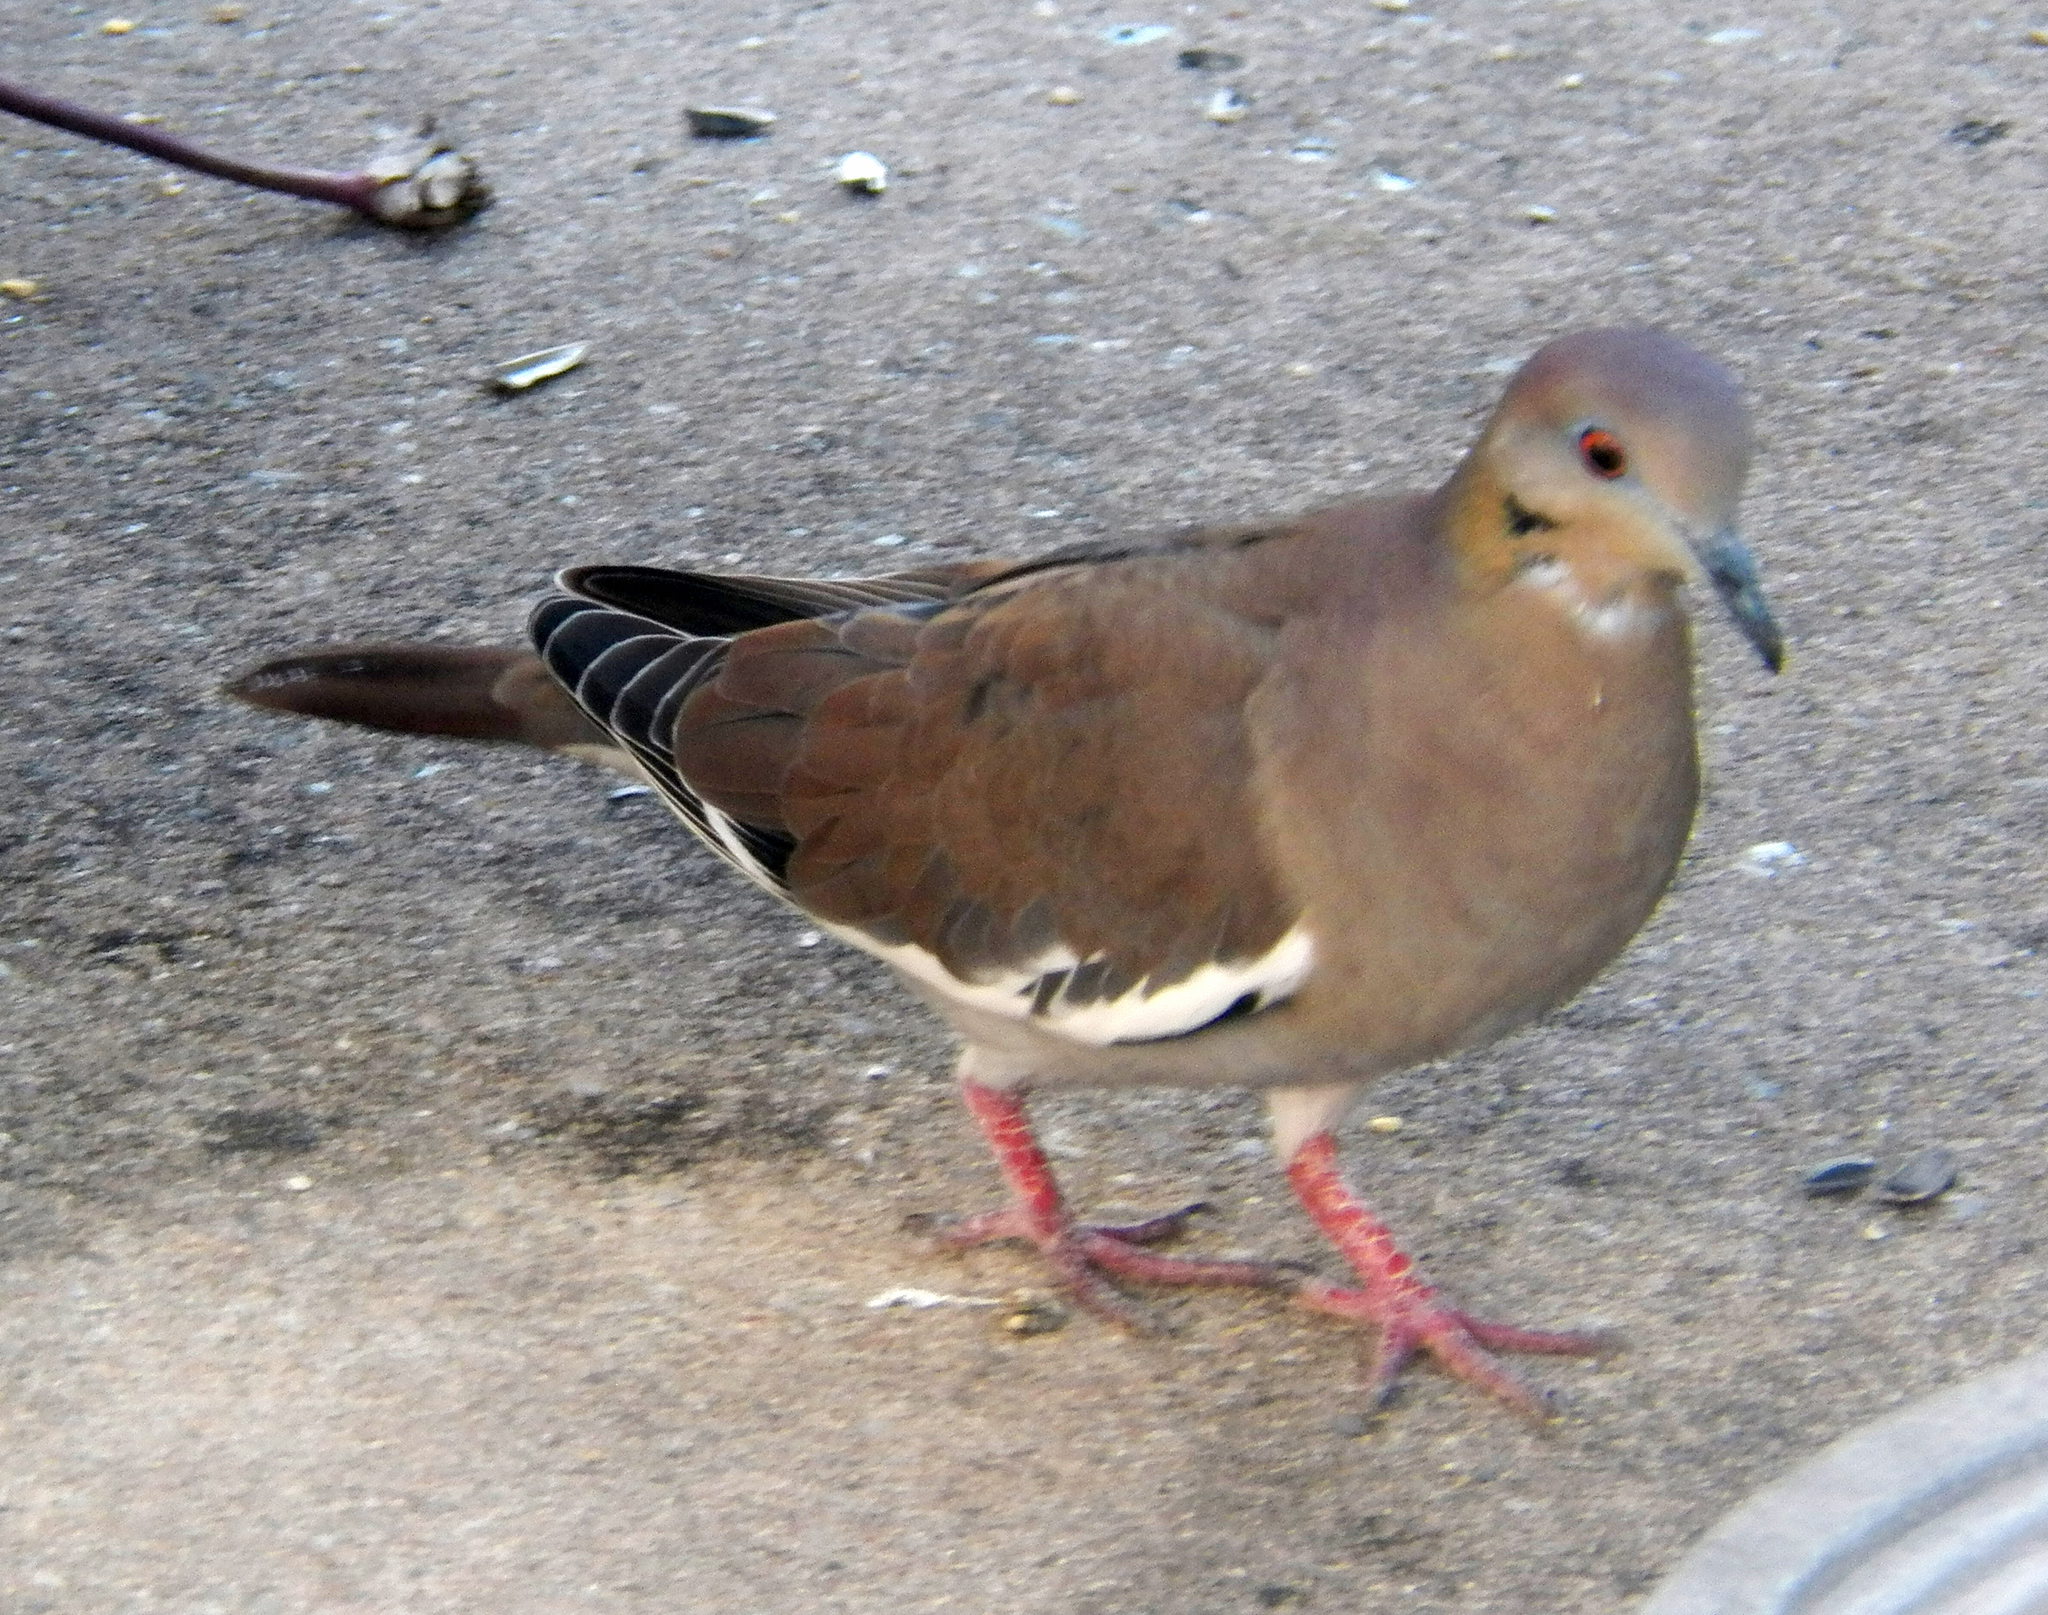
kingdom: Animalia
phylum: Chordata
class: Aves
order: Columbiformes
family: Columbidae
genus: Zenaida
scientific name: Zenaida asiatica
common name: White-winged dove
